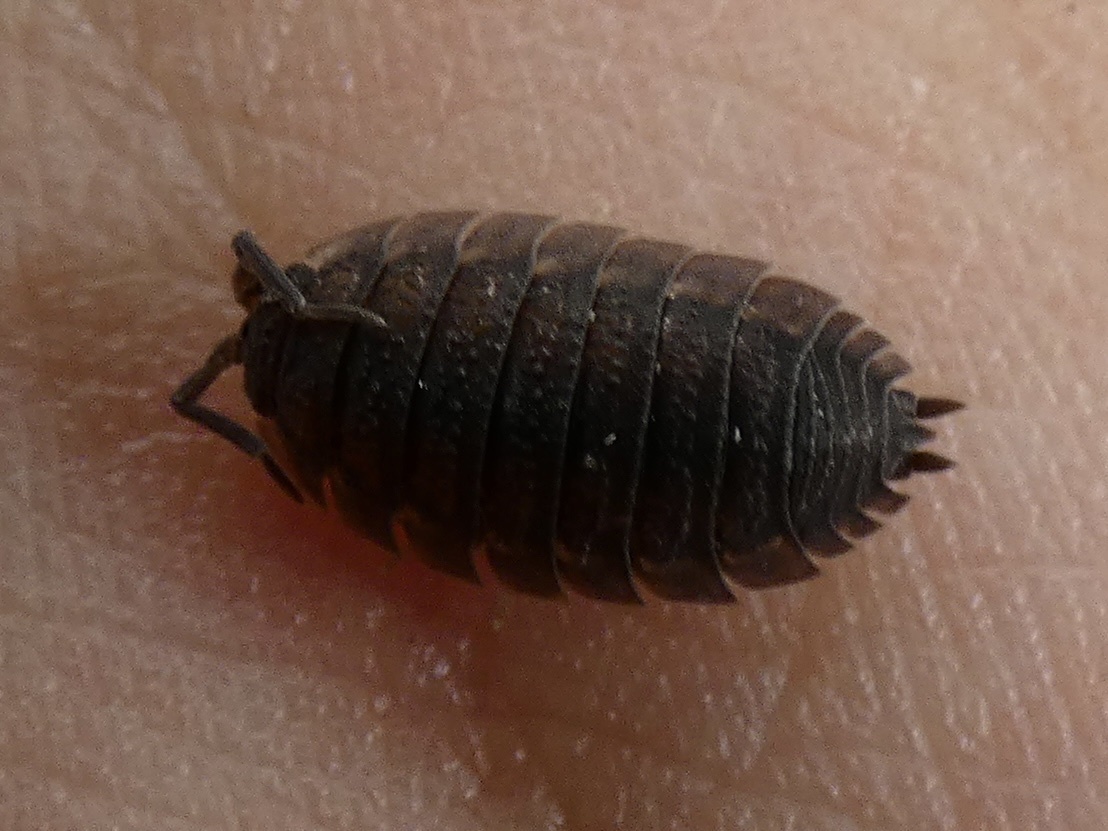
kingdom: Animalia
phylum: Arthropoda
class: Malacostraca
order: Isopoda
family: Porcellionidae
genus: Porcellio
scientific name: Porcellio scaber
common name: Common rough woodlouse
